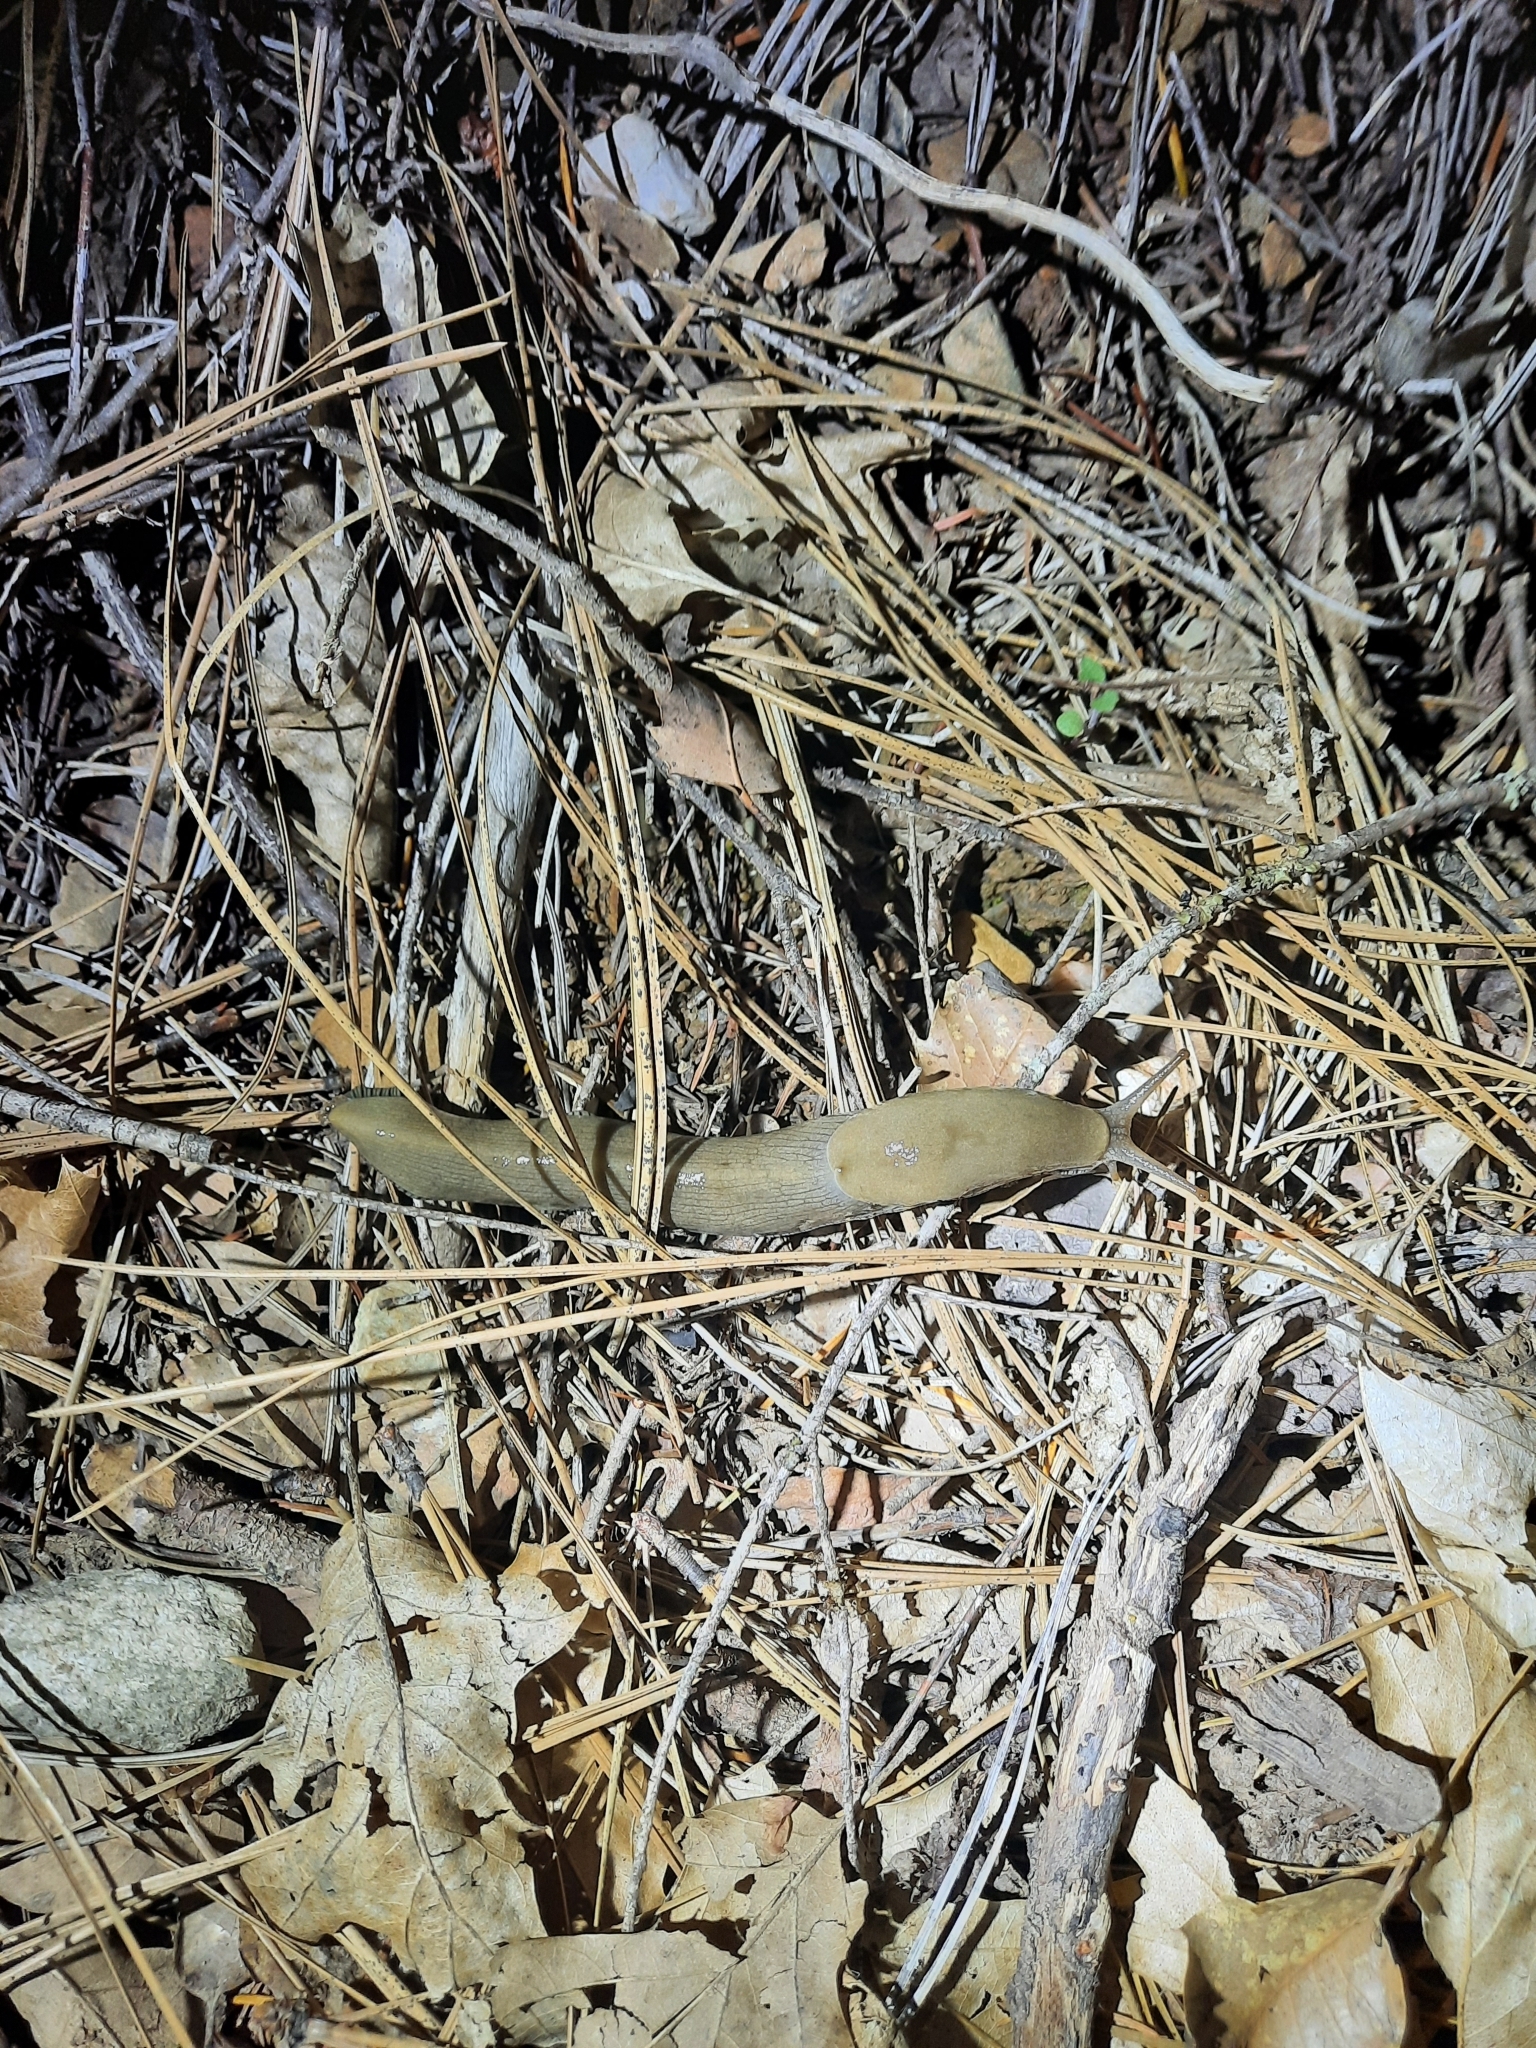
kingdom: Animalia
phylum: Mollusca
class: Gastropoda
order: Stylommatophora
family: Ariolimacidae
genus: Ariolimax
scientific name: Ariolimax buttoni
